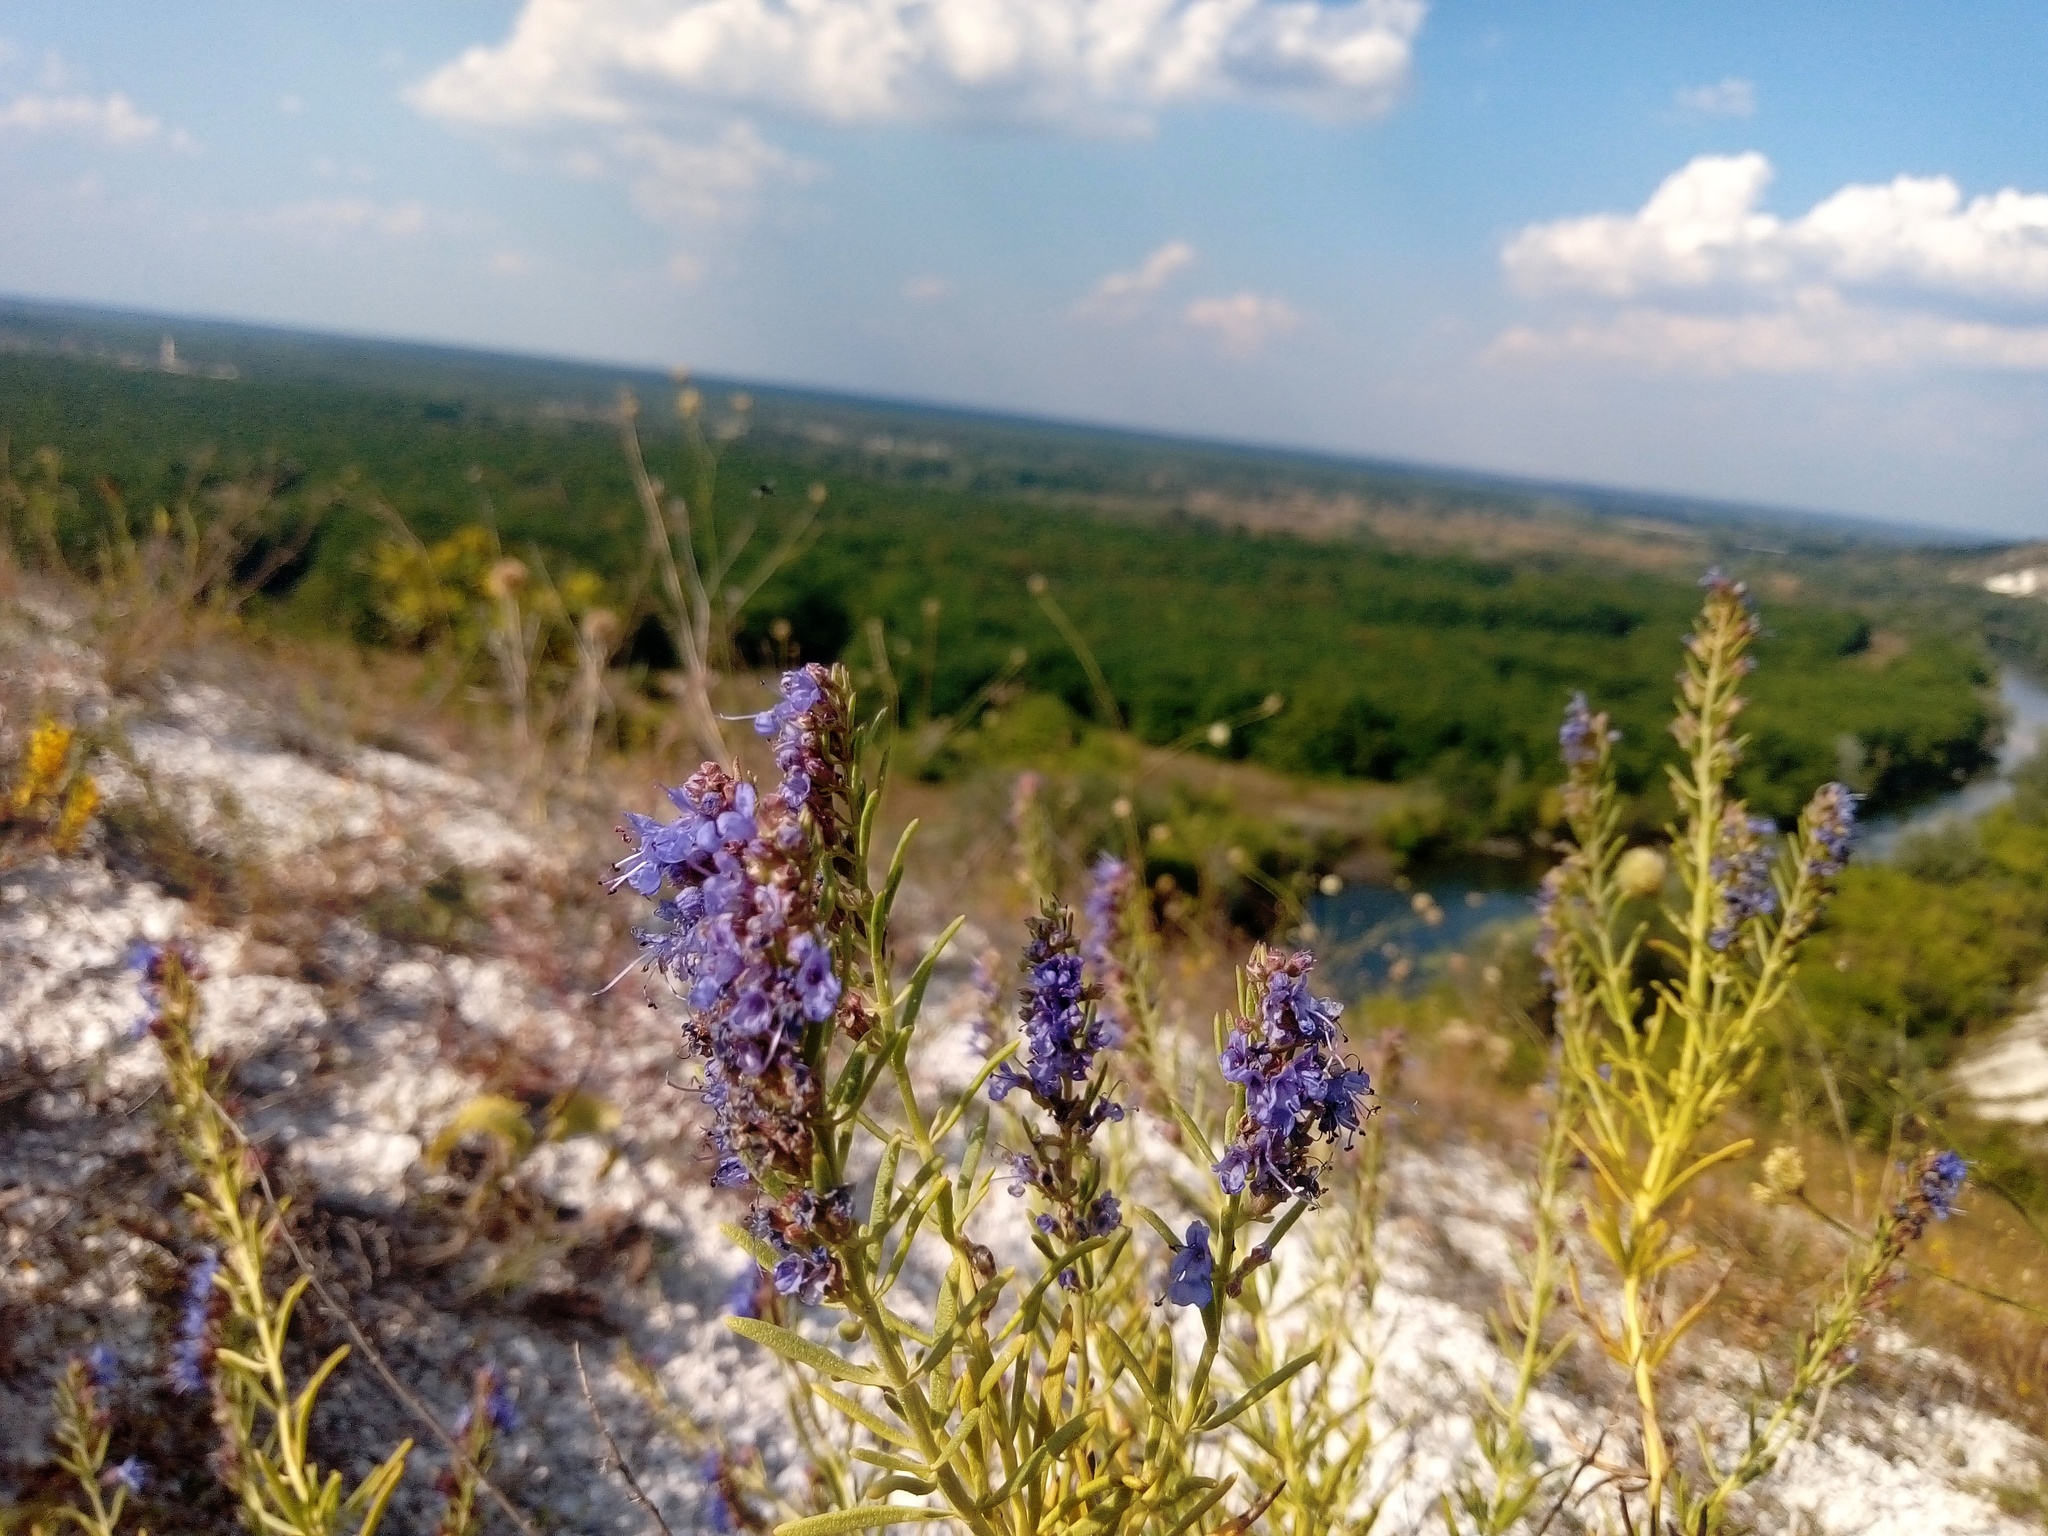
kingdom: Plantae
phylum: Tracheophyta
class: Magnoliopsida
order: Lamiales
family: Lamiaceae
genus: Hyssopus
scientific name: Hyssopus officinalis
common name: Hyssop
